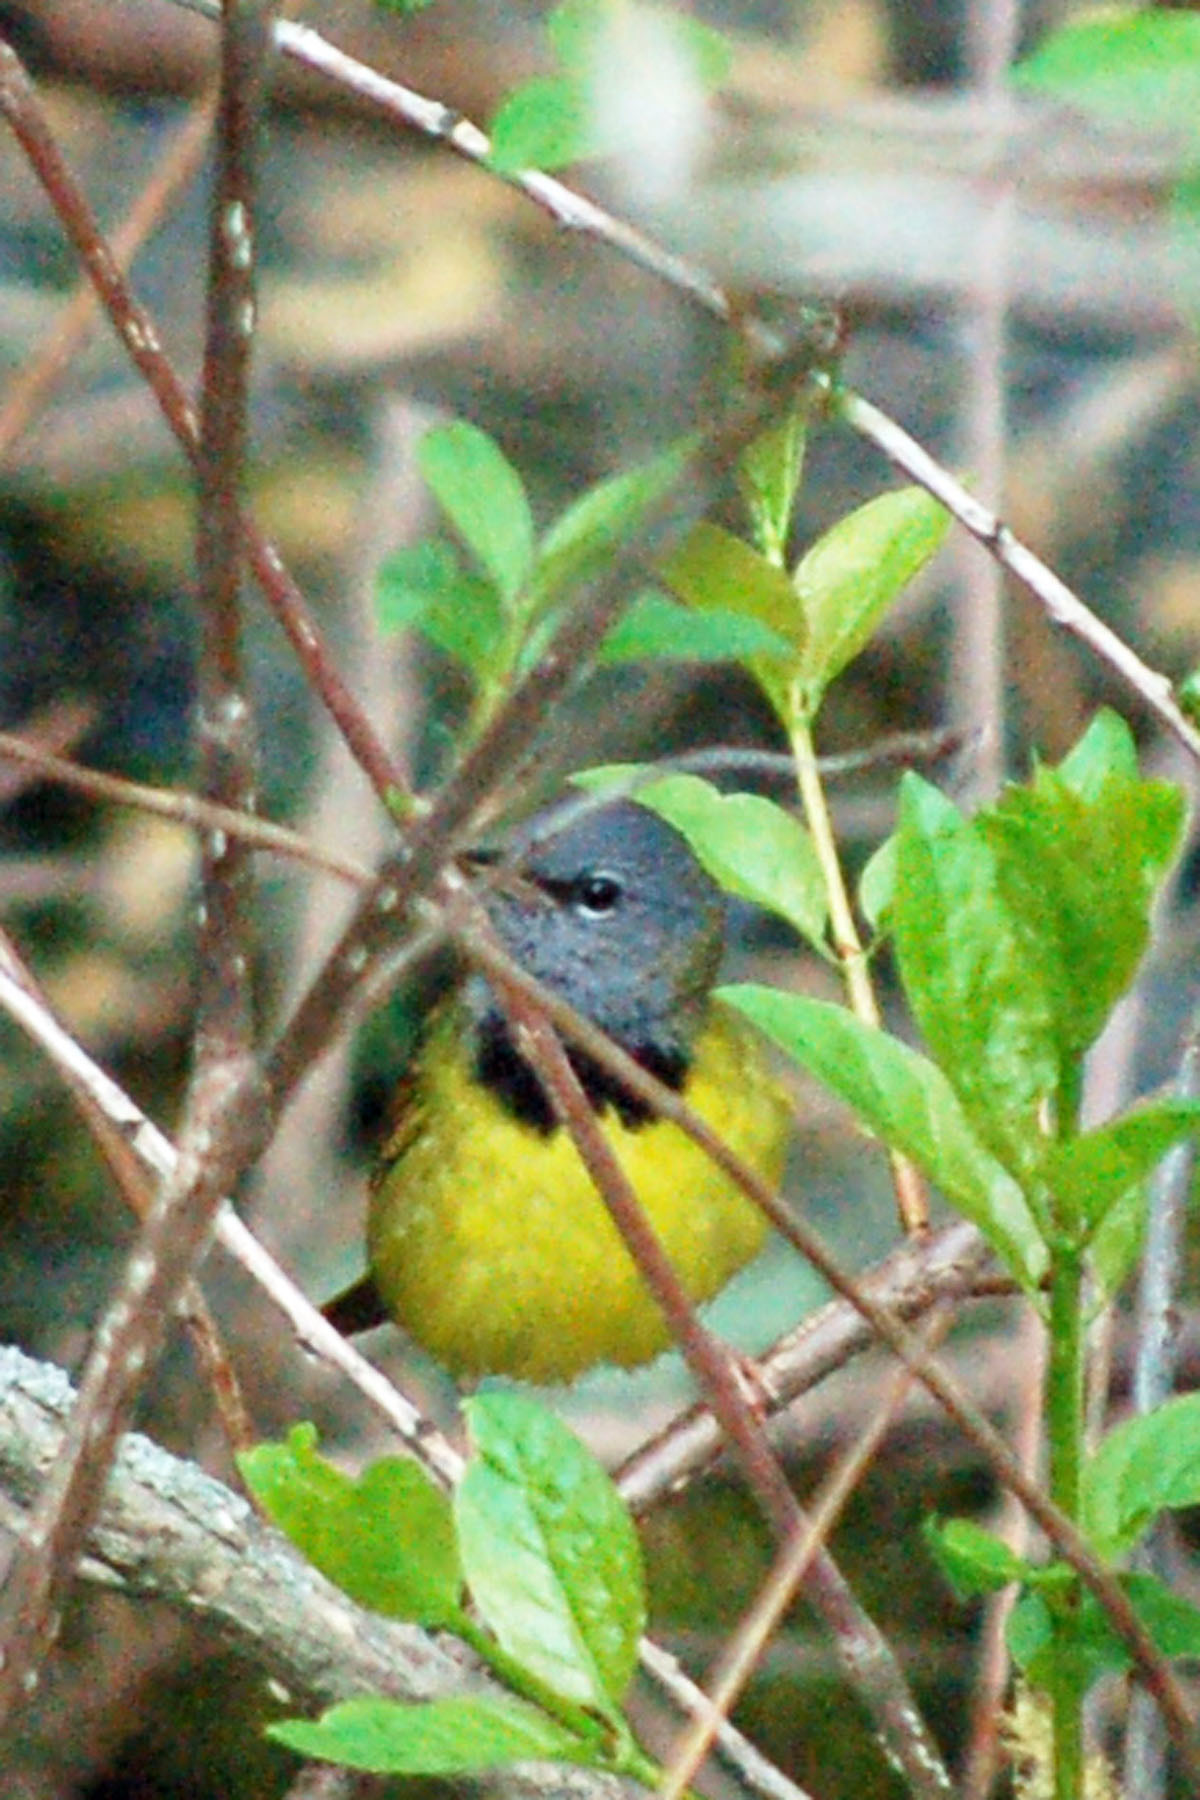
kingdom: Animalia
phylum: Chordata
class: Aves
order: Passeriformes
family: Parulidae
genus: Geothlypis
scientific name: Geothlypis philadelphia
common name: Mourning warbler
